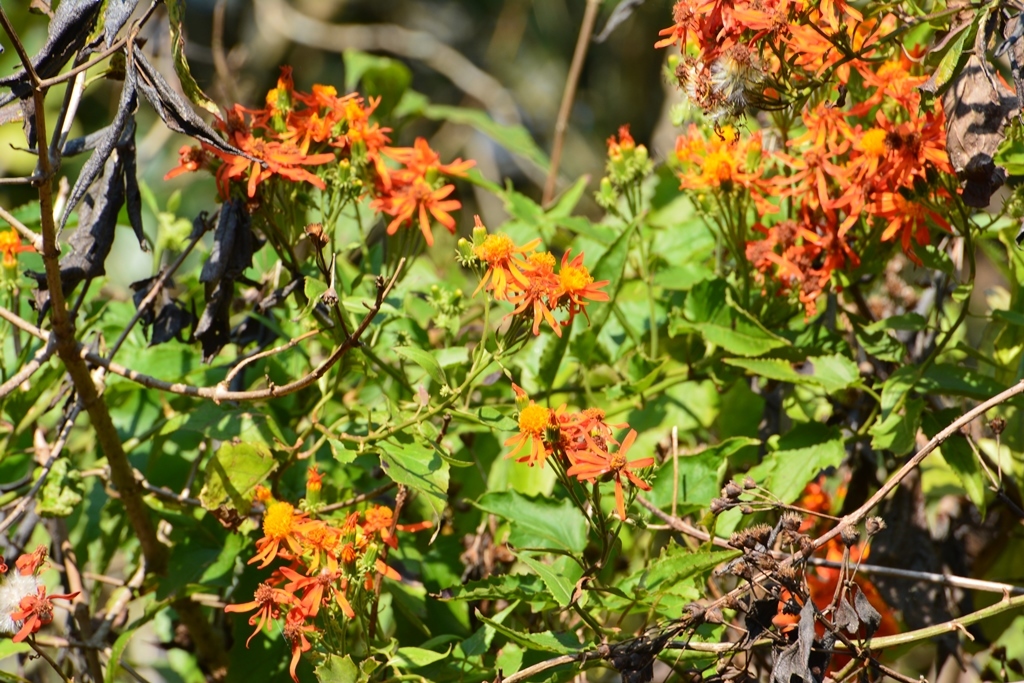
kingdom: Plantae
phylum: Tracheophyta
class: Magnoliopsida
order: Asterales
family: Asteraceae
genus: Pseudogynoxys
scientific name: Pseudogynoxys haenkei
